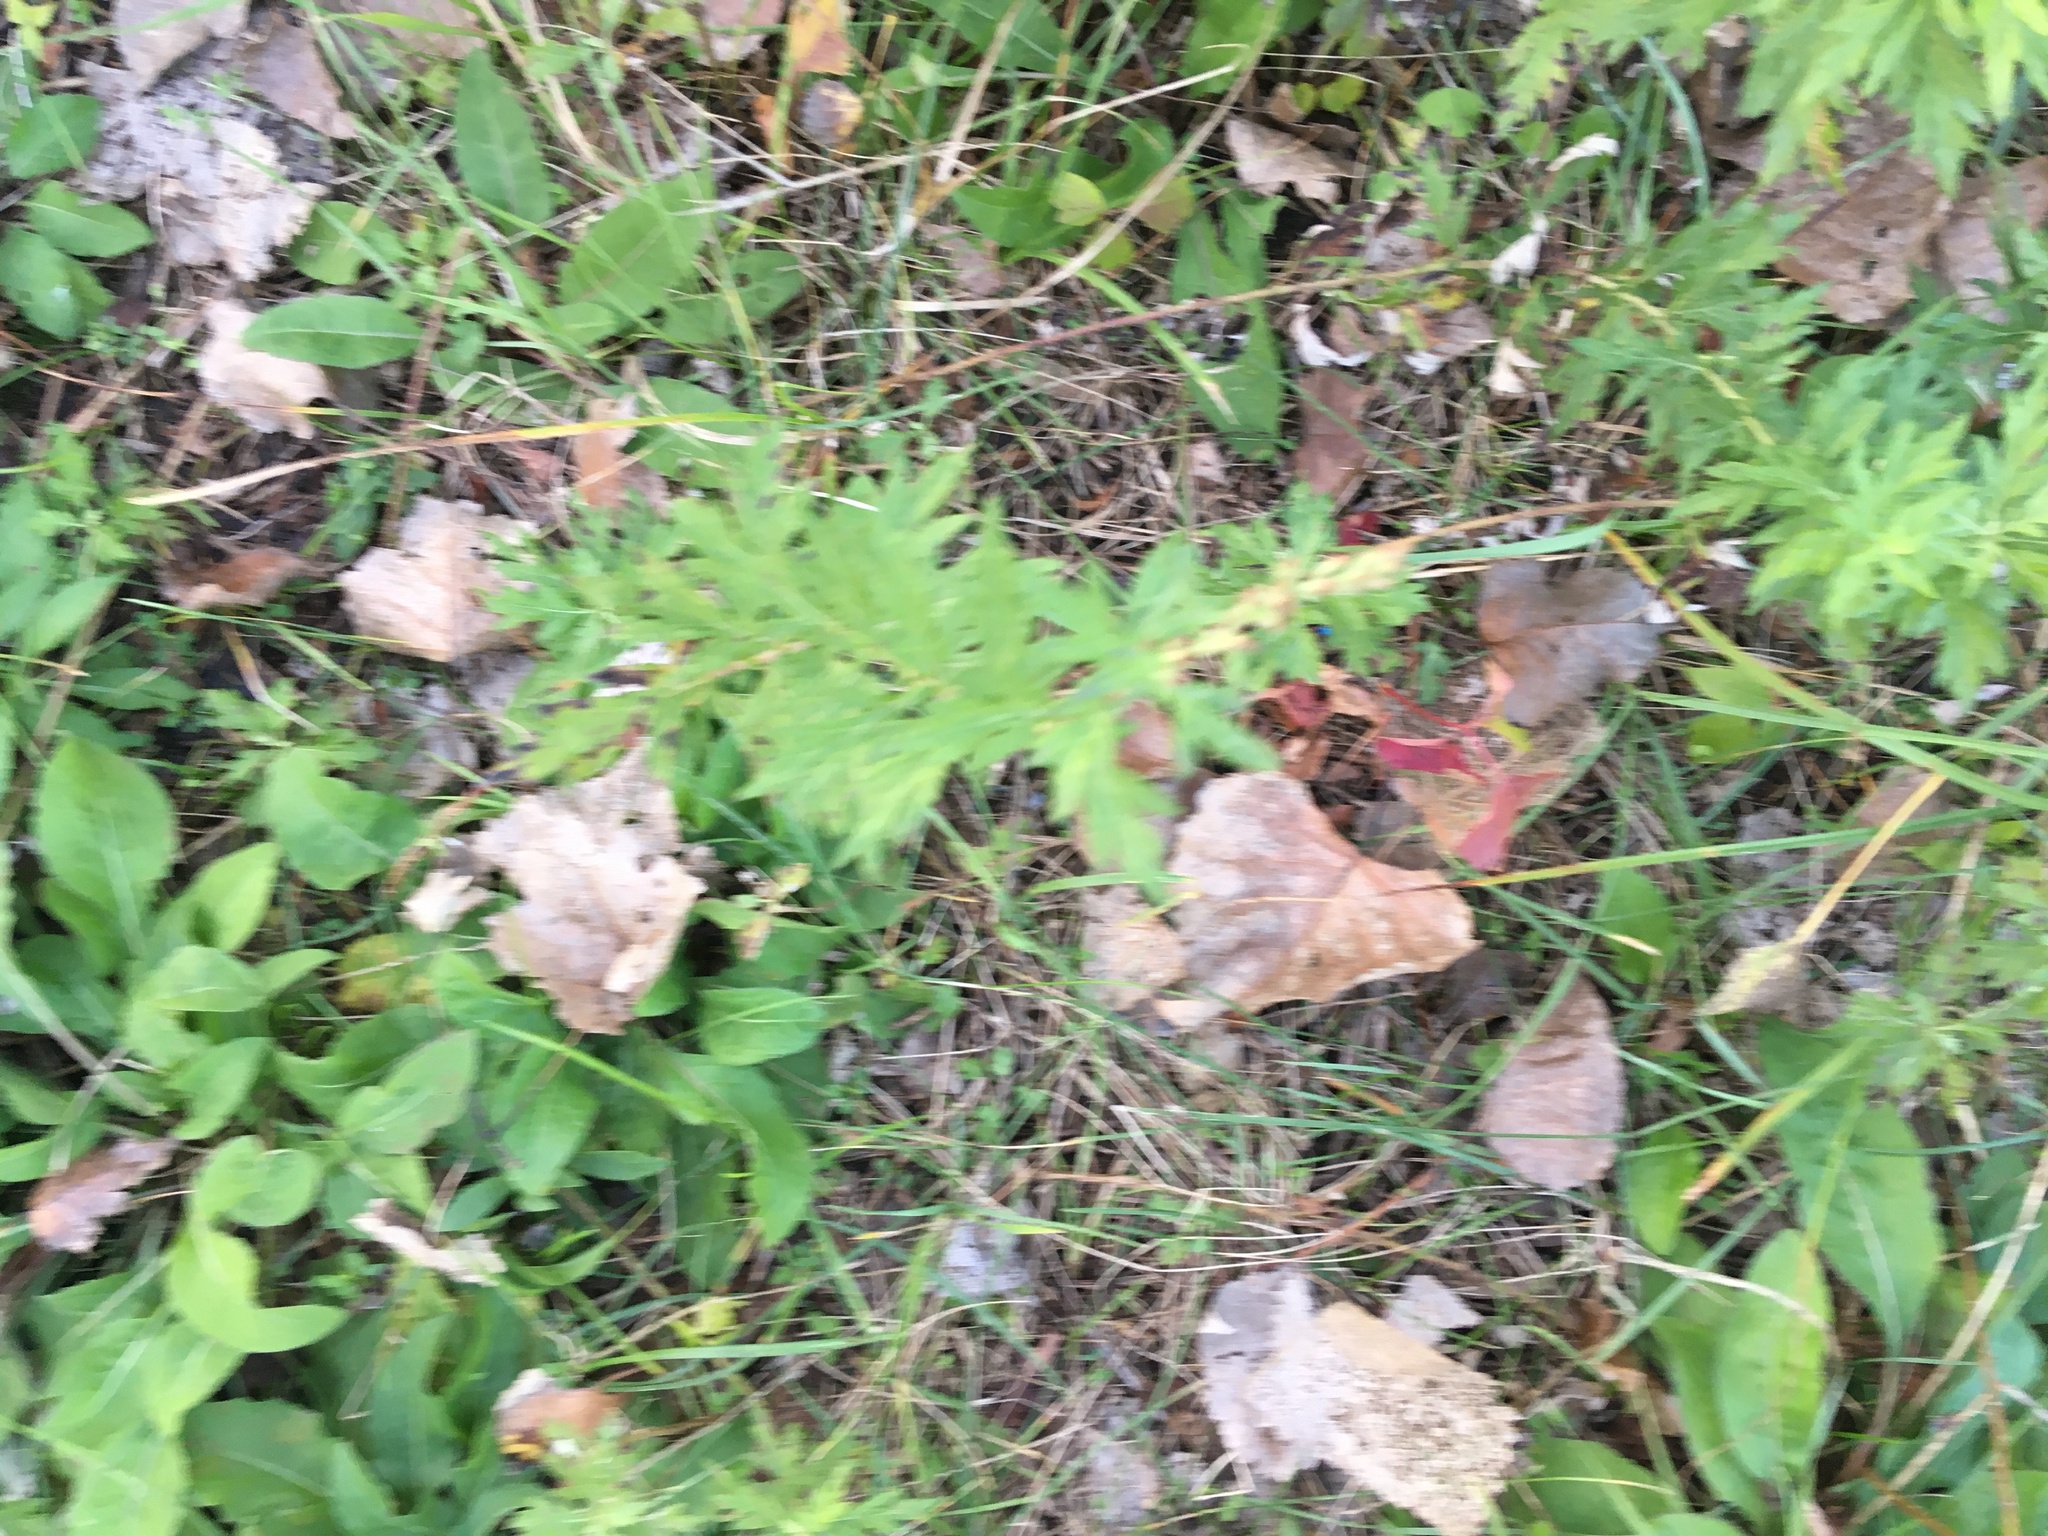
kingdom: Plantae
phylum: Tracheophyta
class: Magnoliopsida
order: Asterales
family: Asteraceae
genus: Artemisia
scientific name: Artemisia vulgaris
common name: Mugwort
